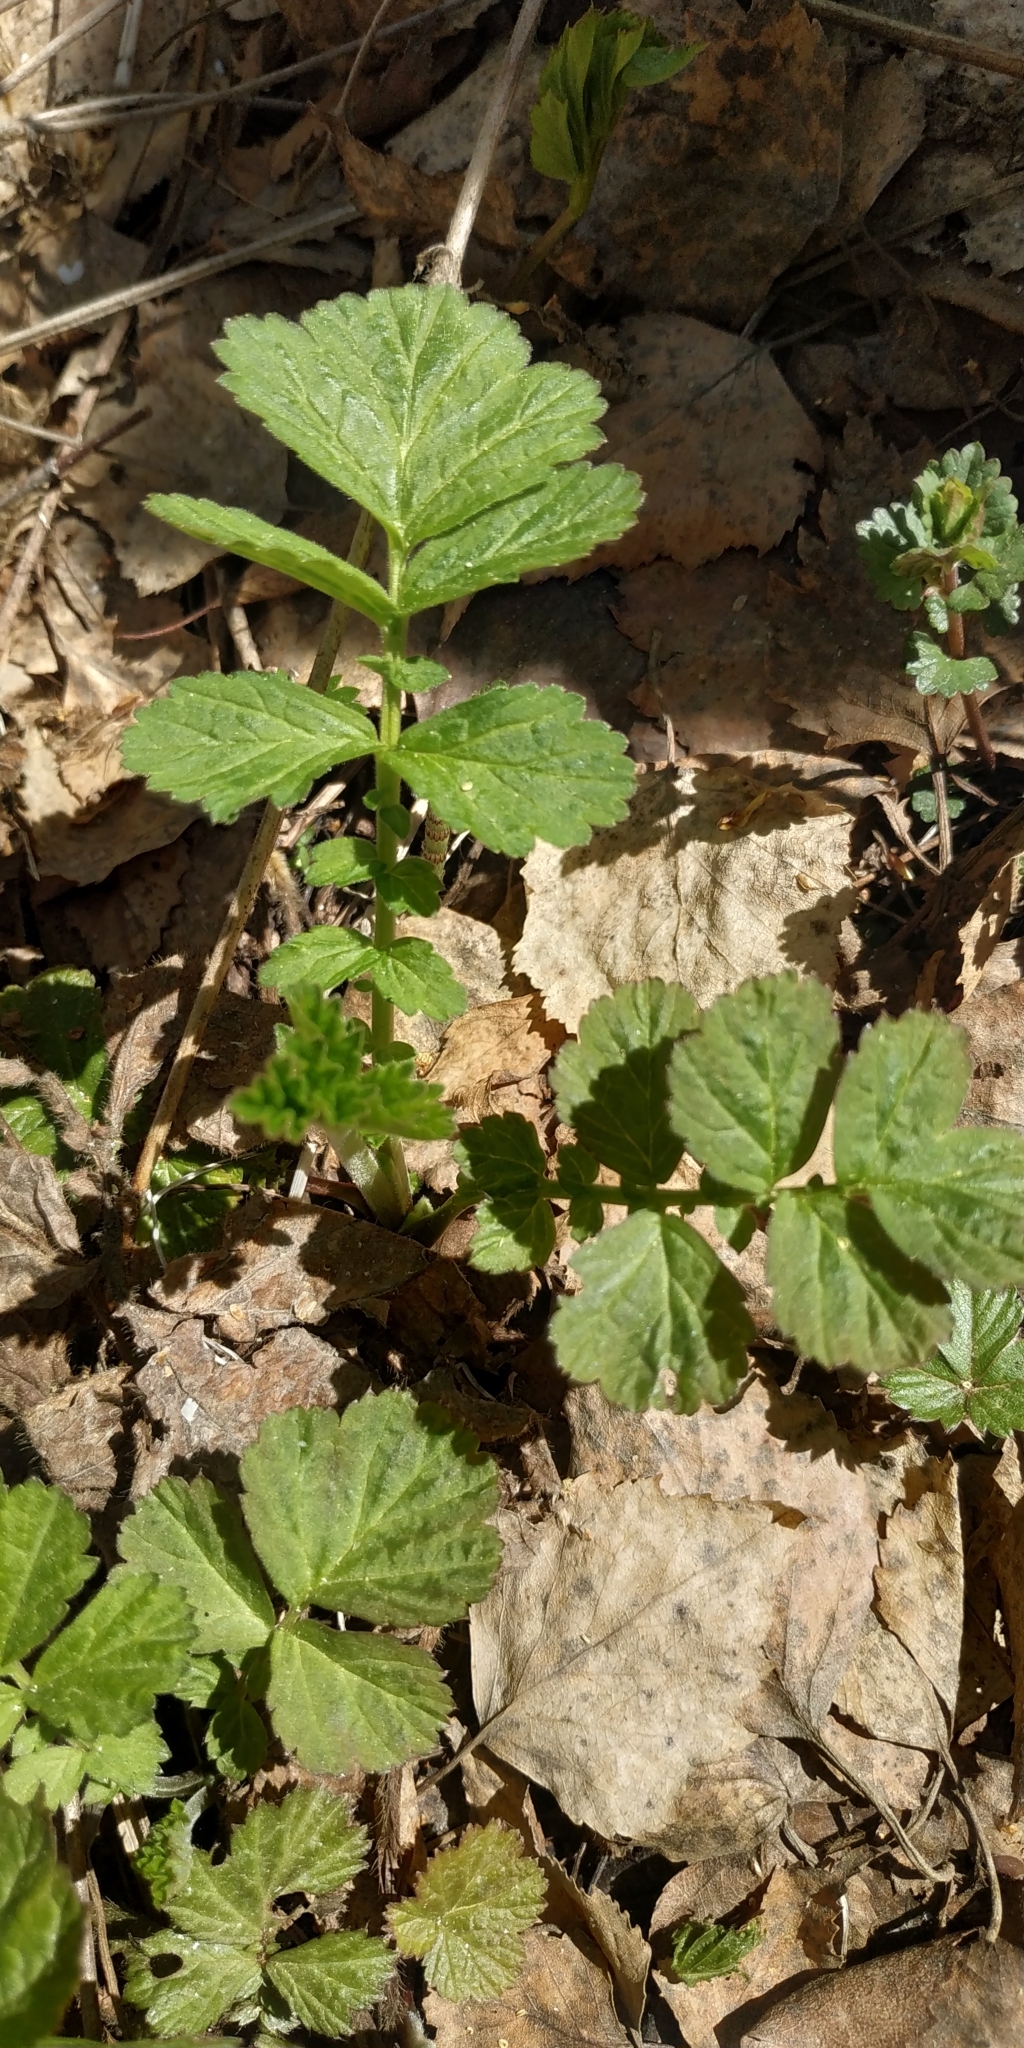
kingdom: Plantae
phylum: Tracheophyta
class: Magnoliopsida
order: Rosales
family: Rosaceae
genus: Geum
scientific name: Geum rivale
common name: Water avens
